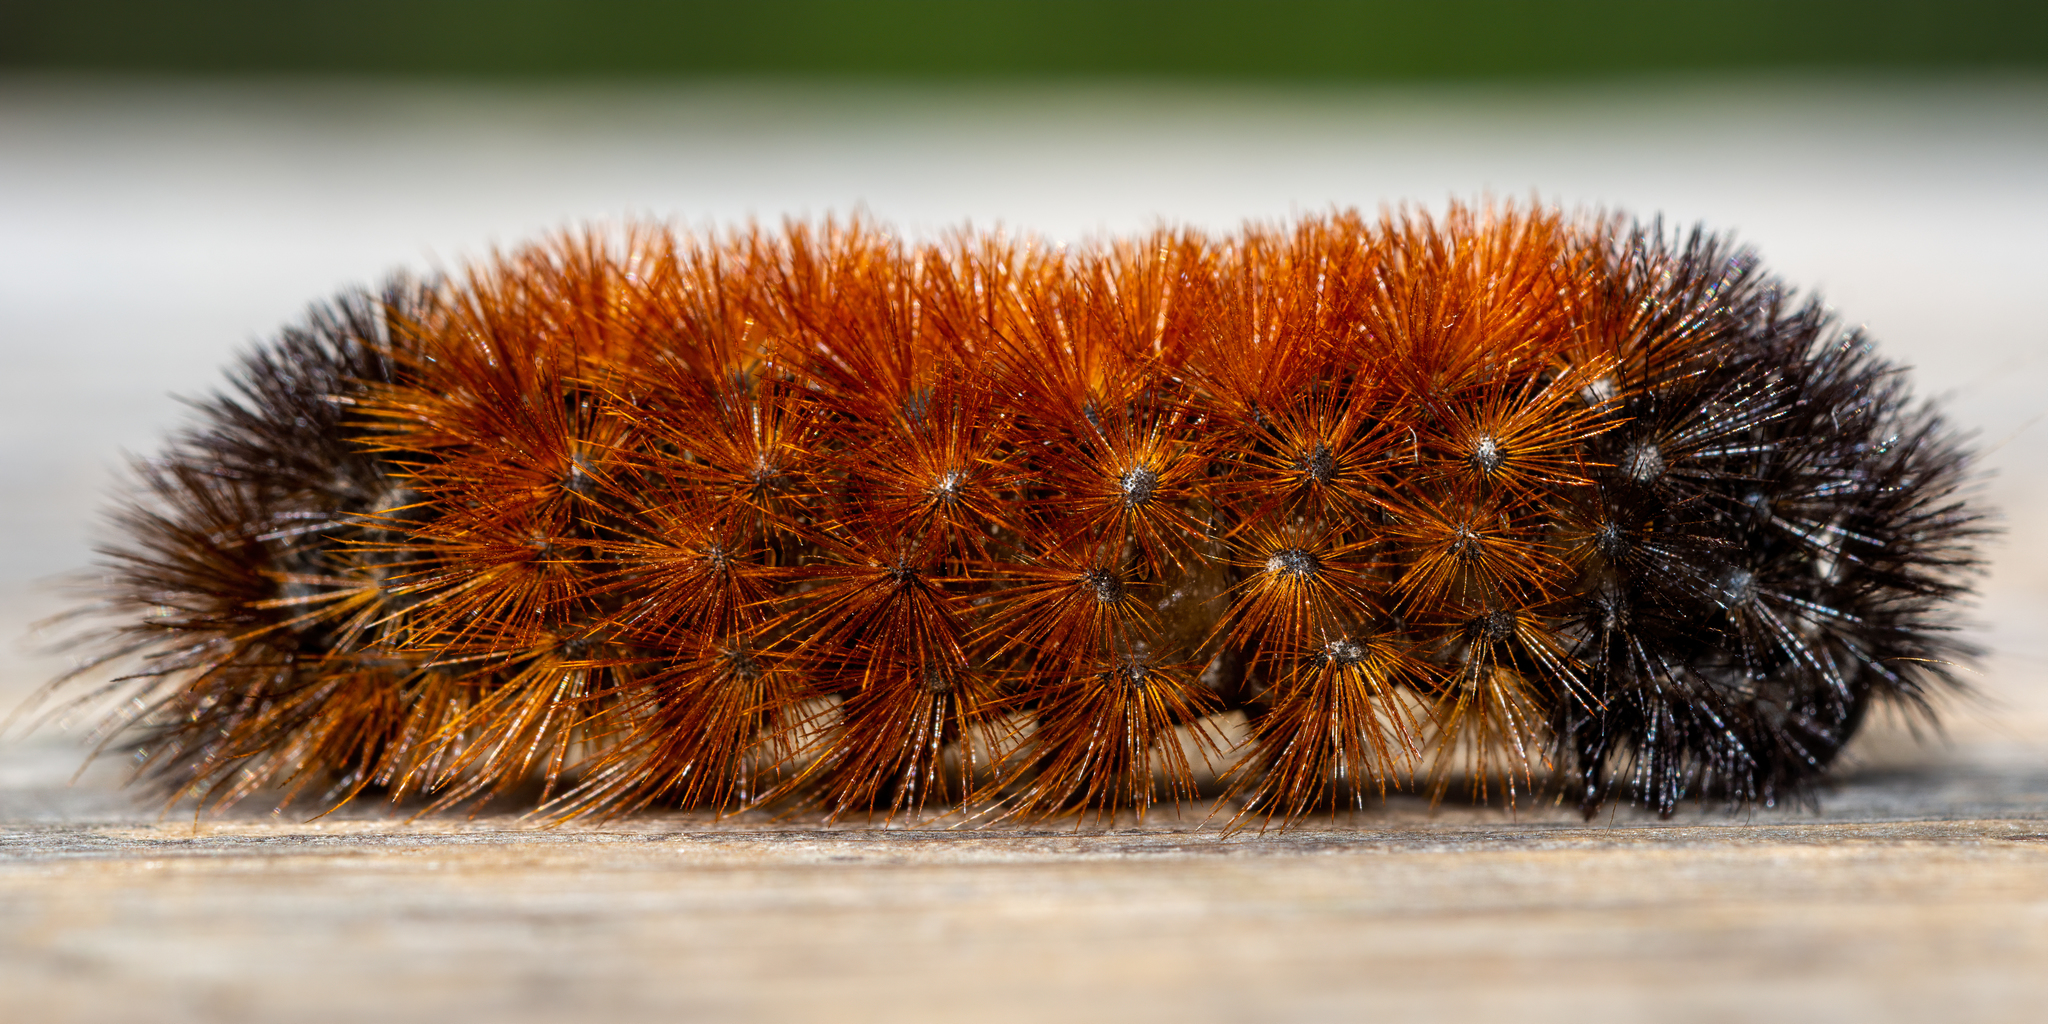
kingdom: Animalia
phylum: Arthropoda
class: Insecta
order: Lepidoptera
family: Erebidae
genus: Pyrrharctia
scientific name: Pyrrharctia isabella
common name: Isabella tiger moth
